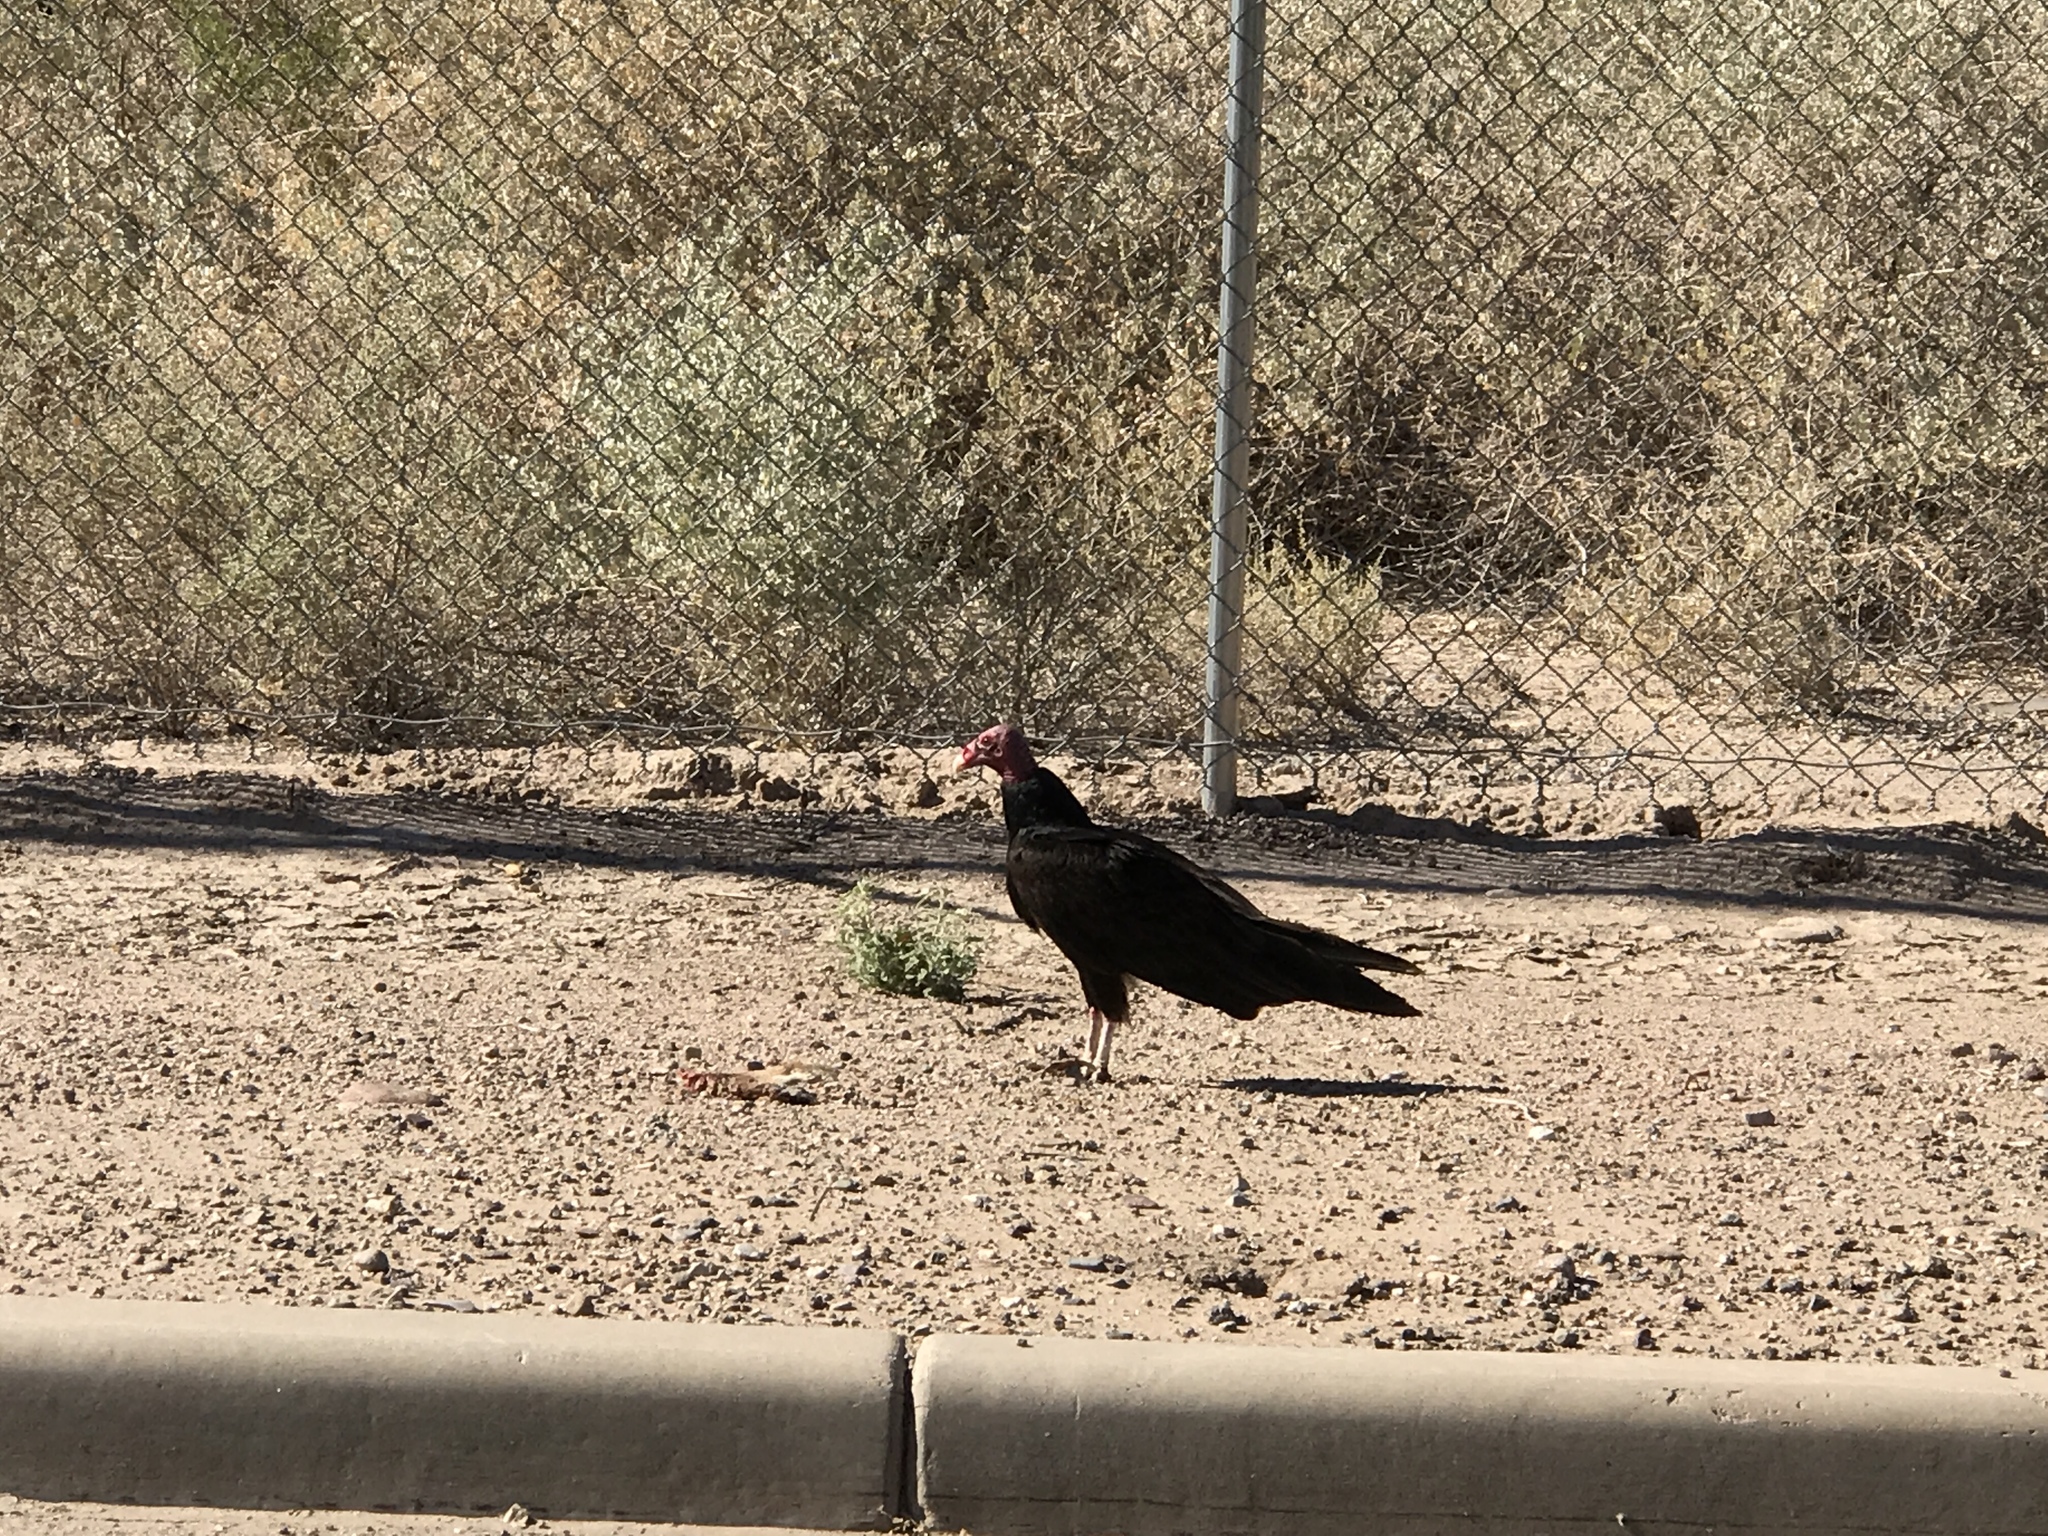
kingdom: Animalia
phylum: Chordata
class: Aves
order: Accipitriformes
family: Cathartidae
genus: Cathartes
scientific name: Cathartes aura
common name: Turkey vulture
